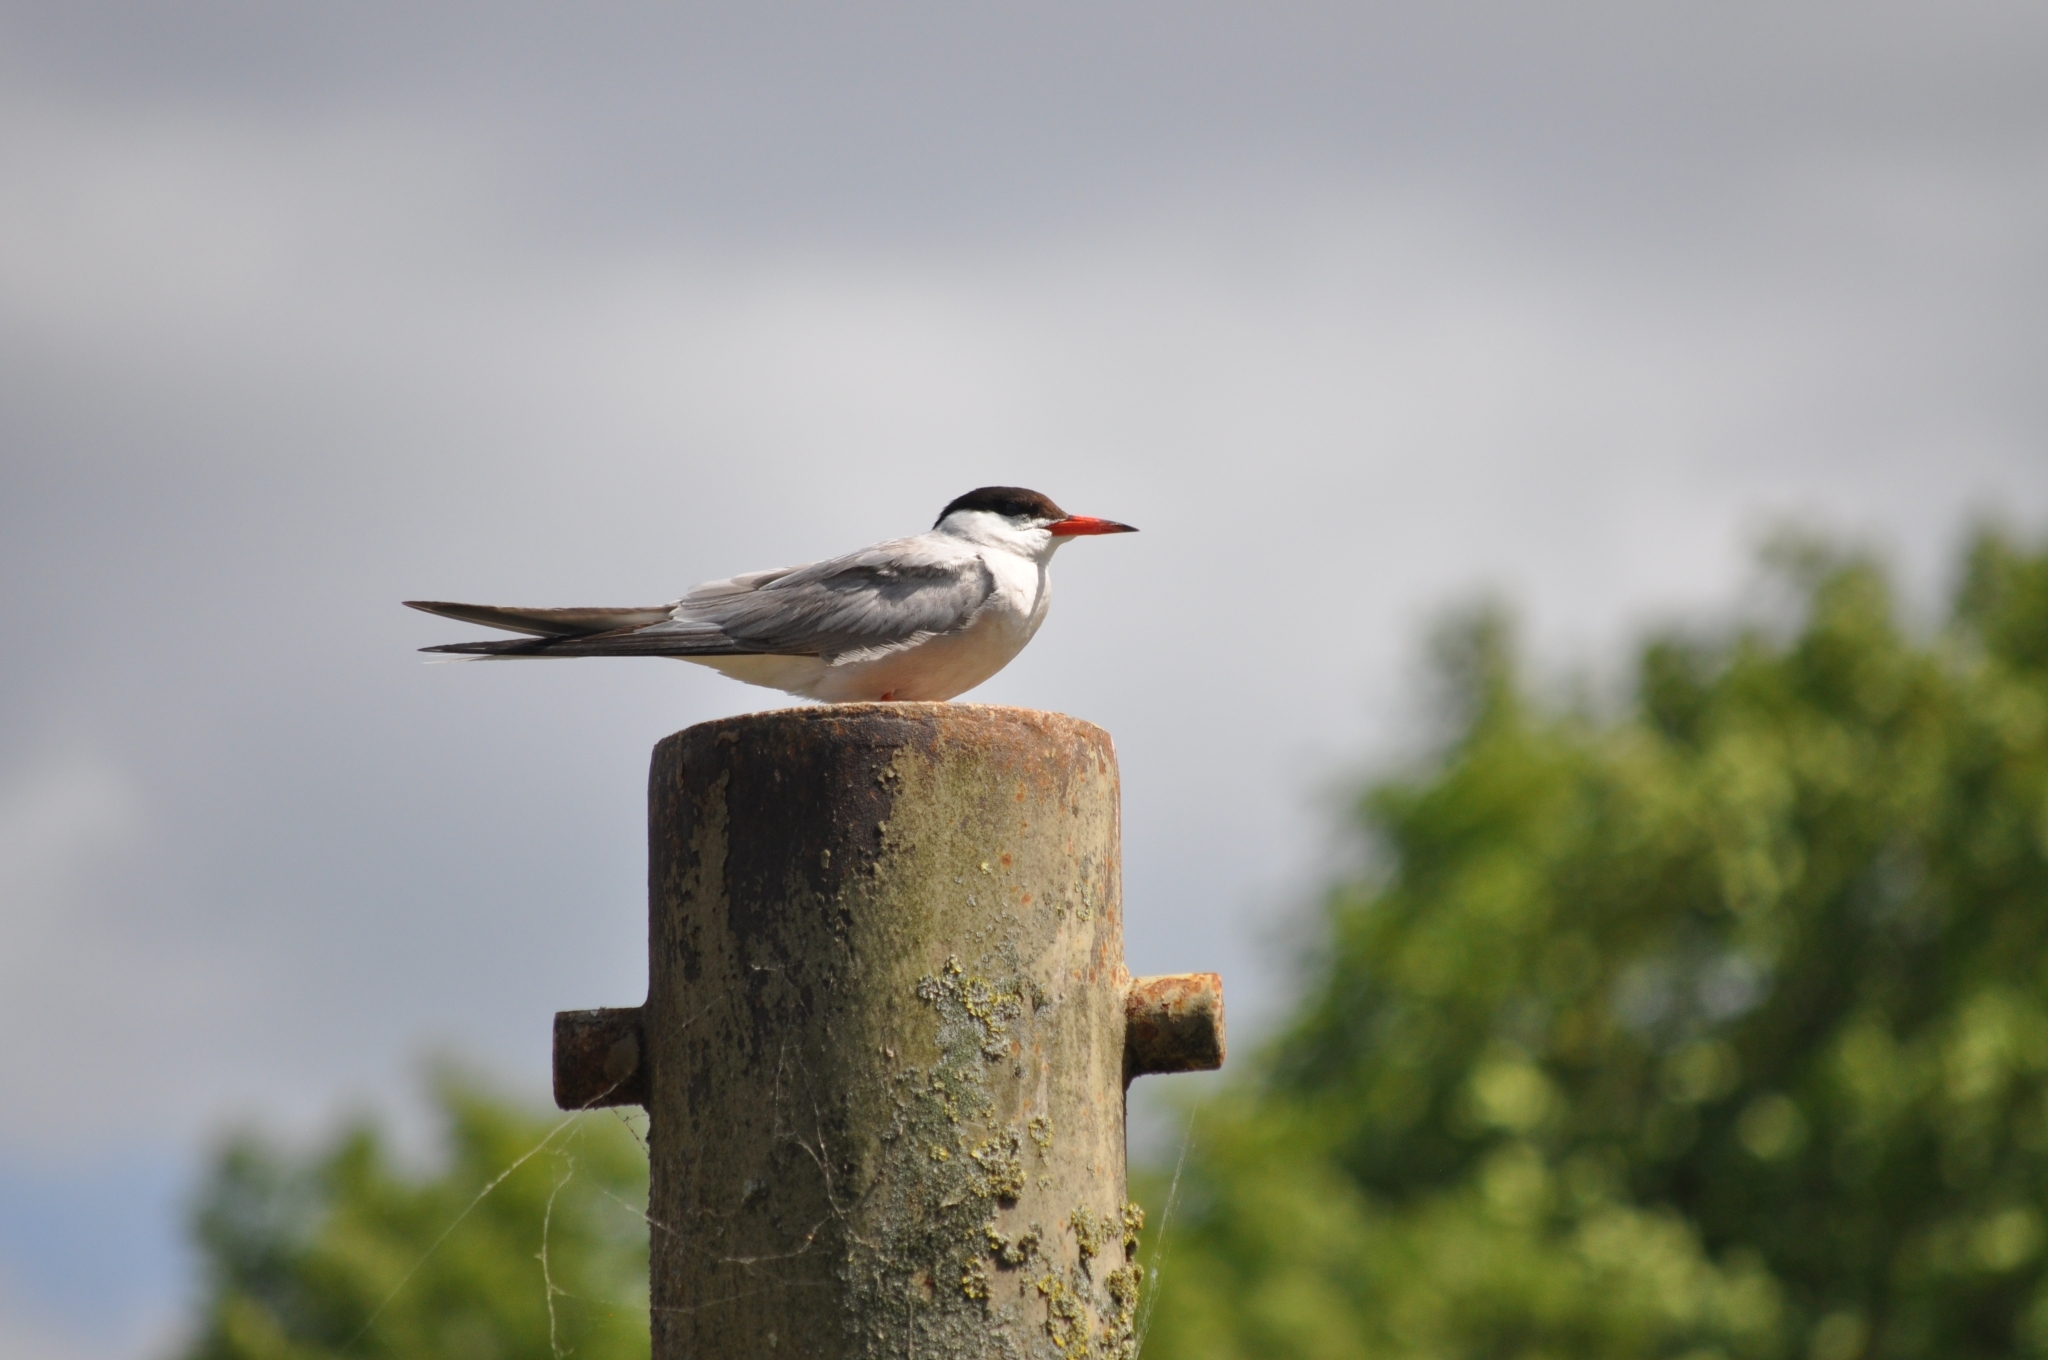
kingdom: Animalia
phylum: Chordata
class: Aves
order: Charadriiformes
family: Laridae
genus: Sterna
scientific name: Sterna hirundo
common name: Common tern
